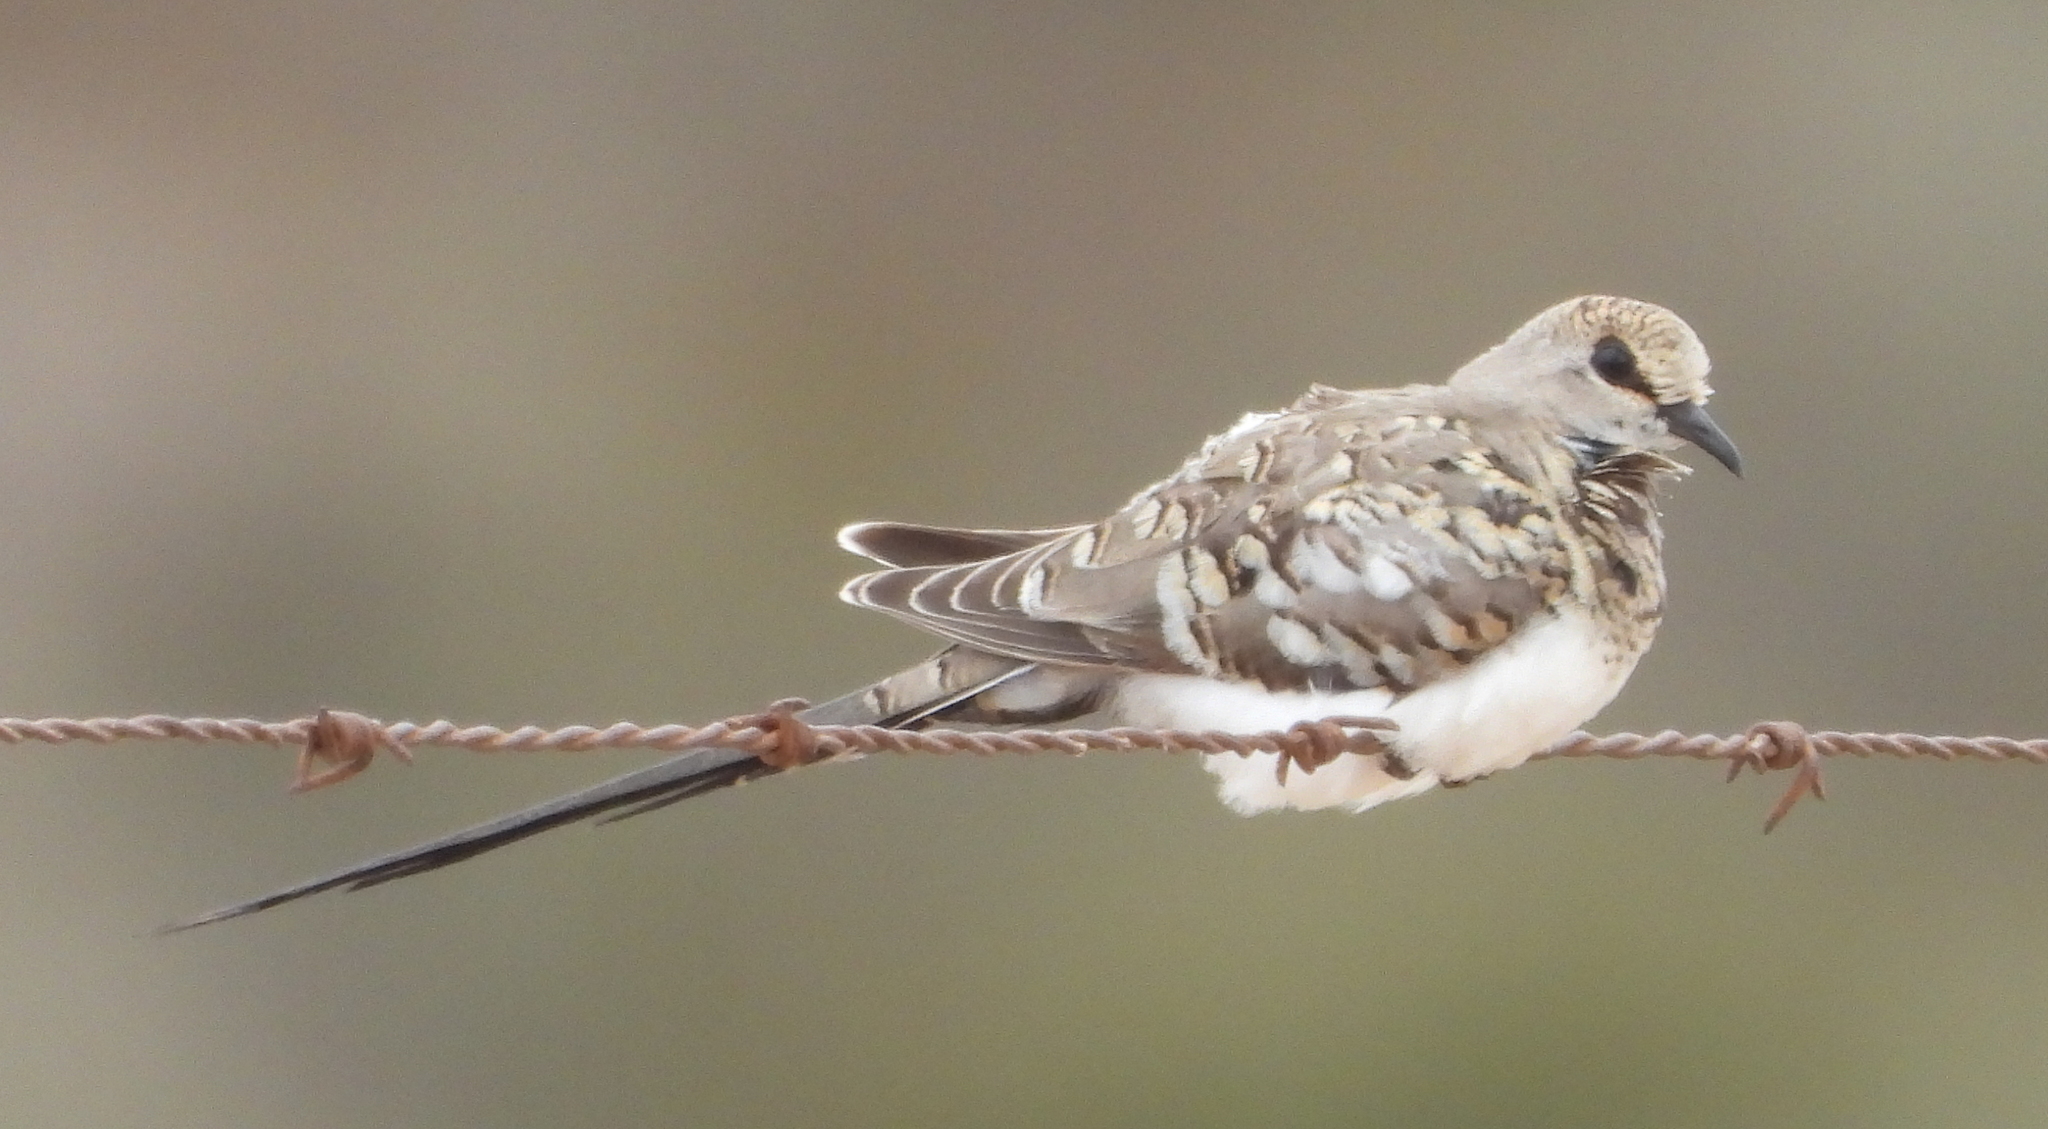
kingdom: Animalia
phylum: Chordata
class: Aves
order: Columbiformes
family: Columbidae
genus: Oena
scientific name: Oena capensis
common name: Namaqua dove
